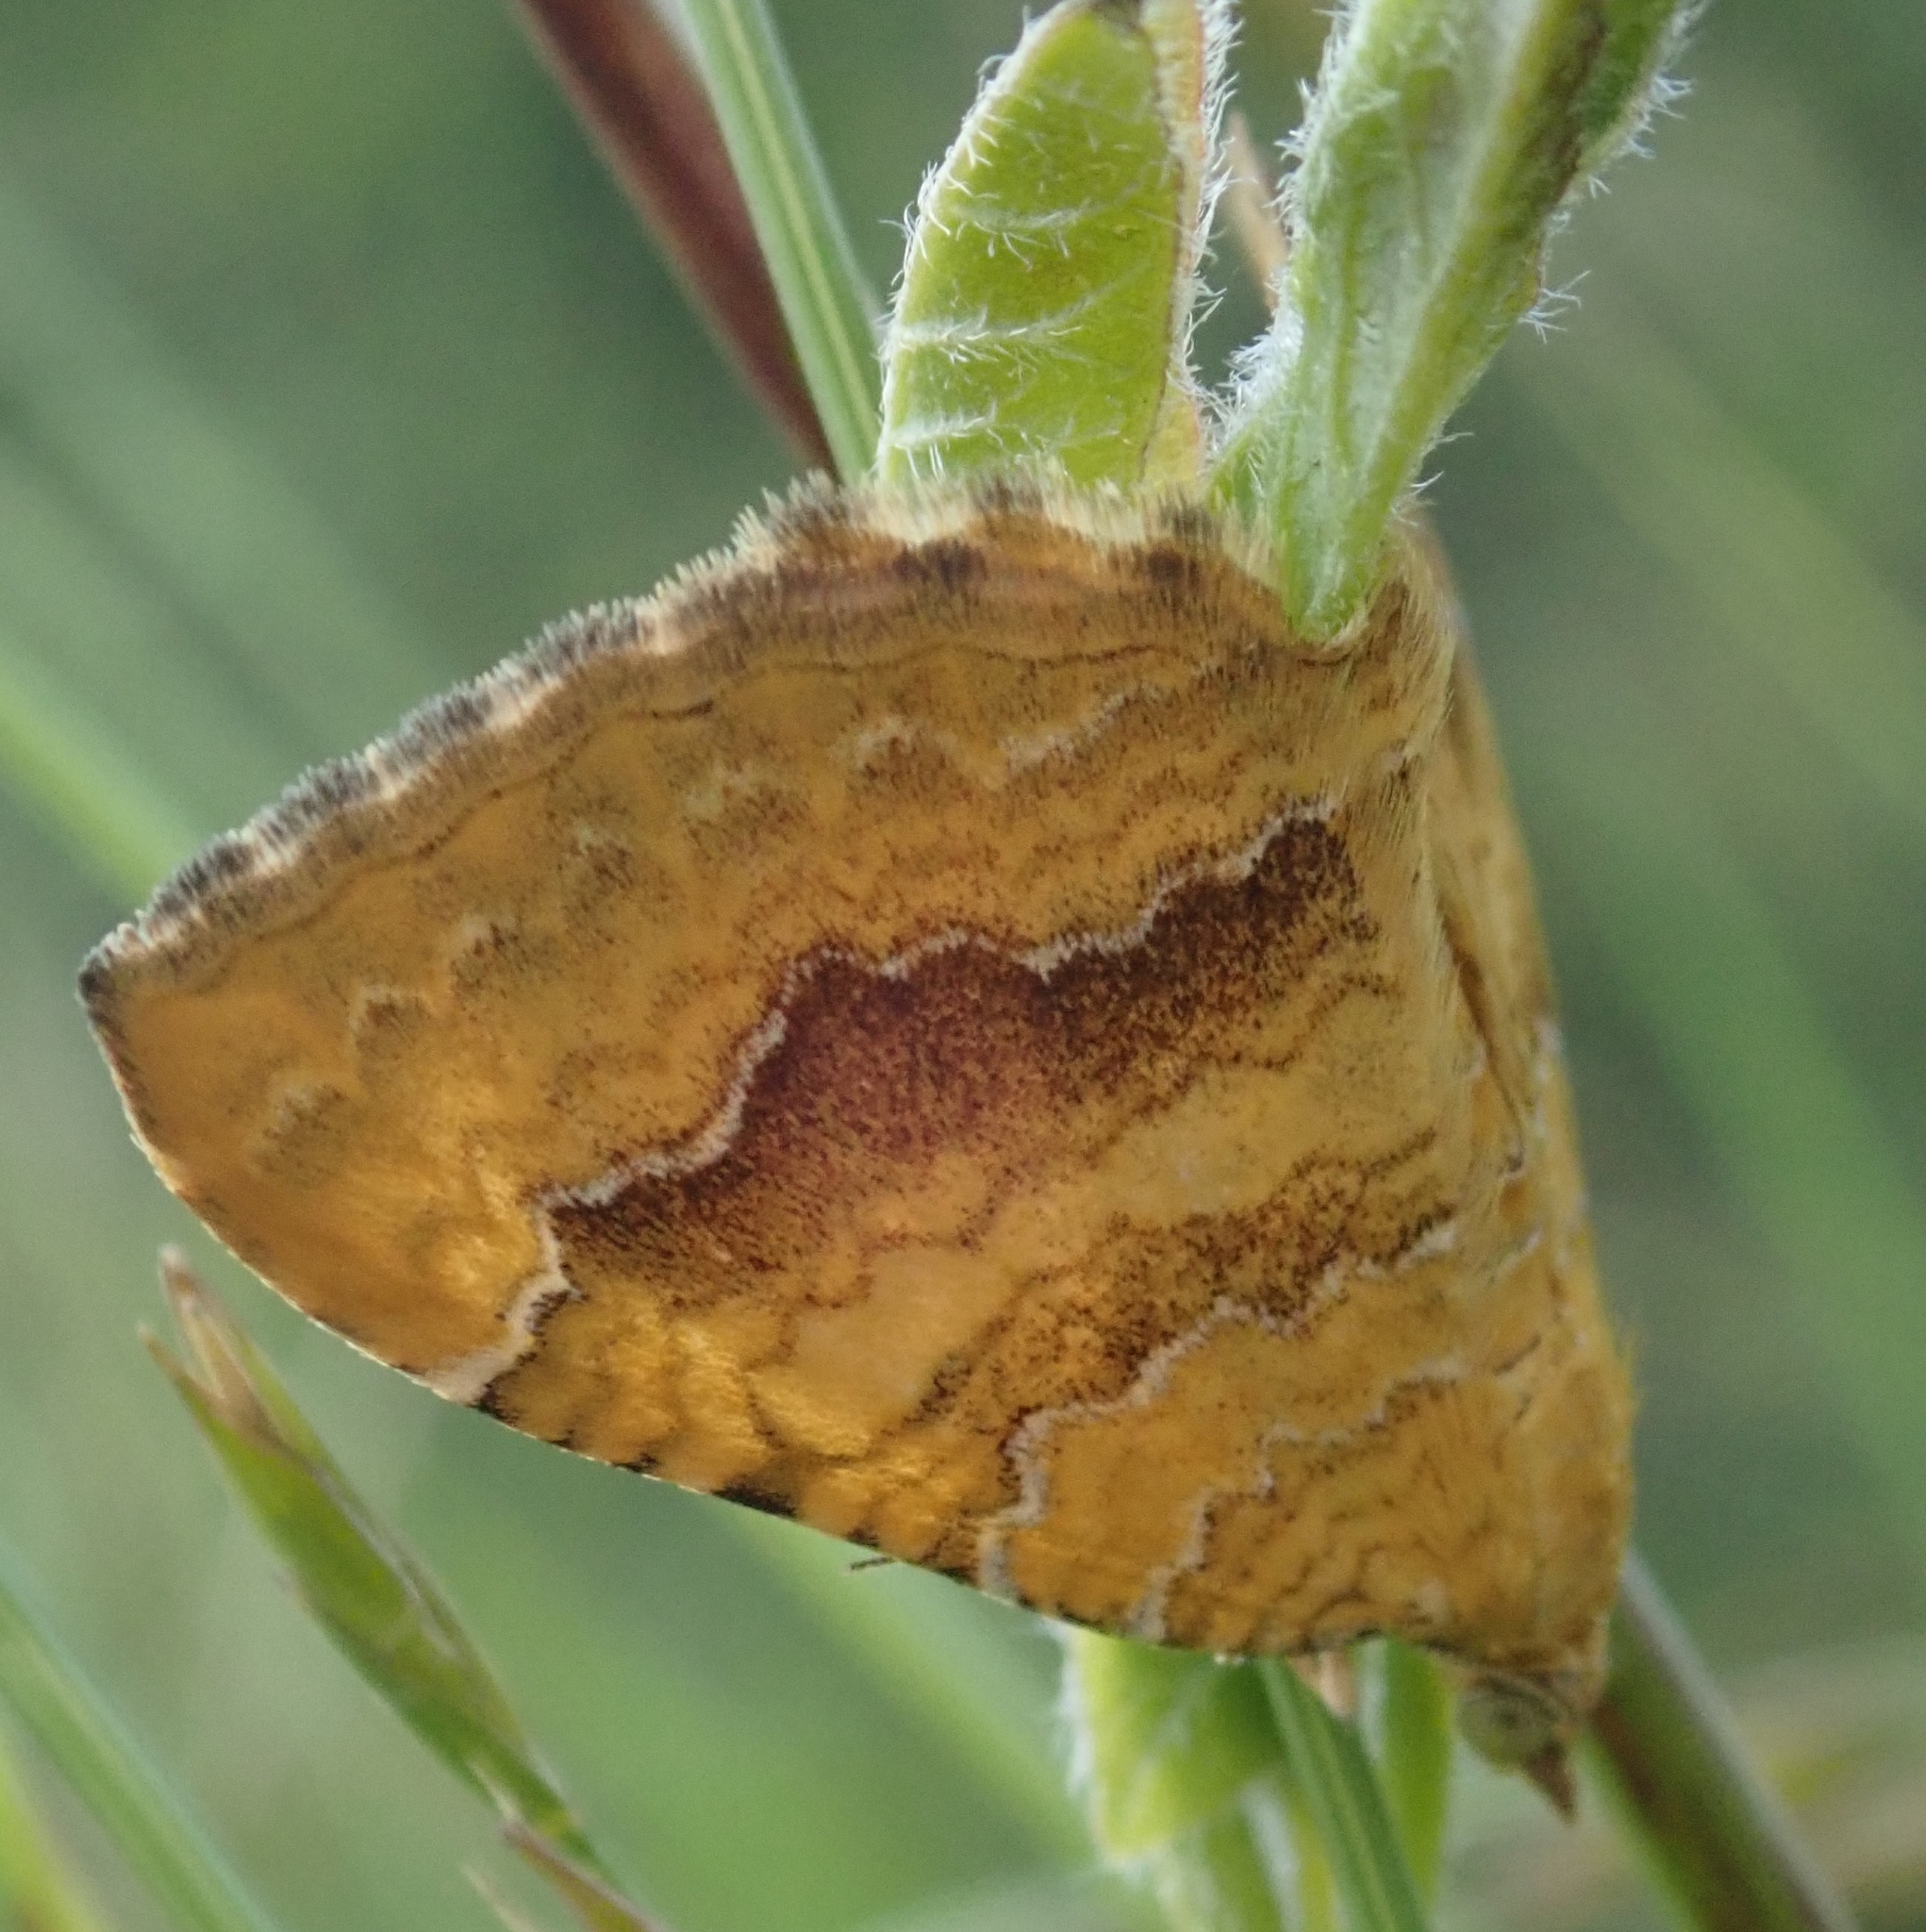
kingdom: Animalia
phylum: Arthropoda
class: Insecta
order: Lepidoptera
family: Geometridae
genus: Camptogramma
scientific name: Camptogramma bilineata
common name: Yellow shell
